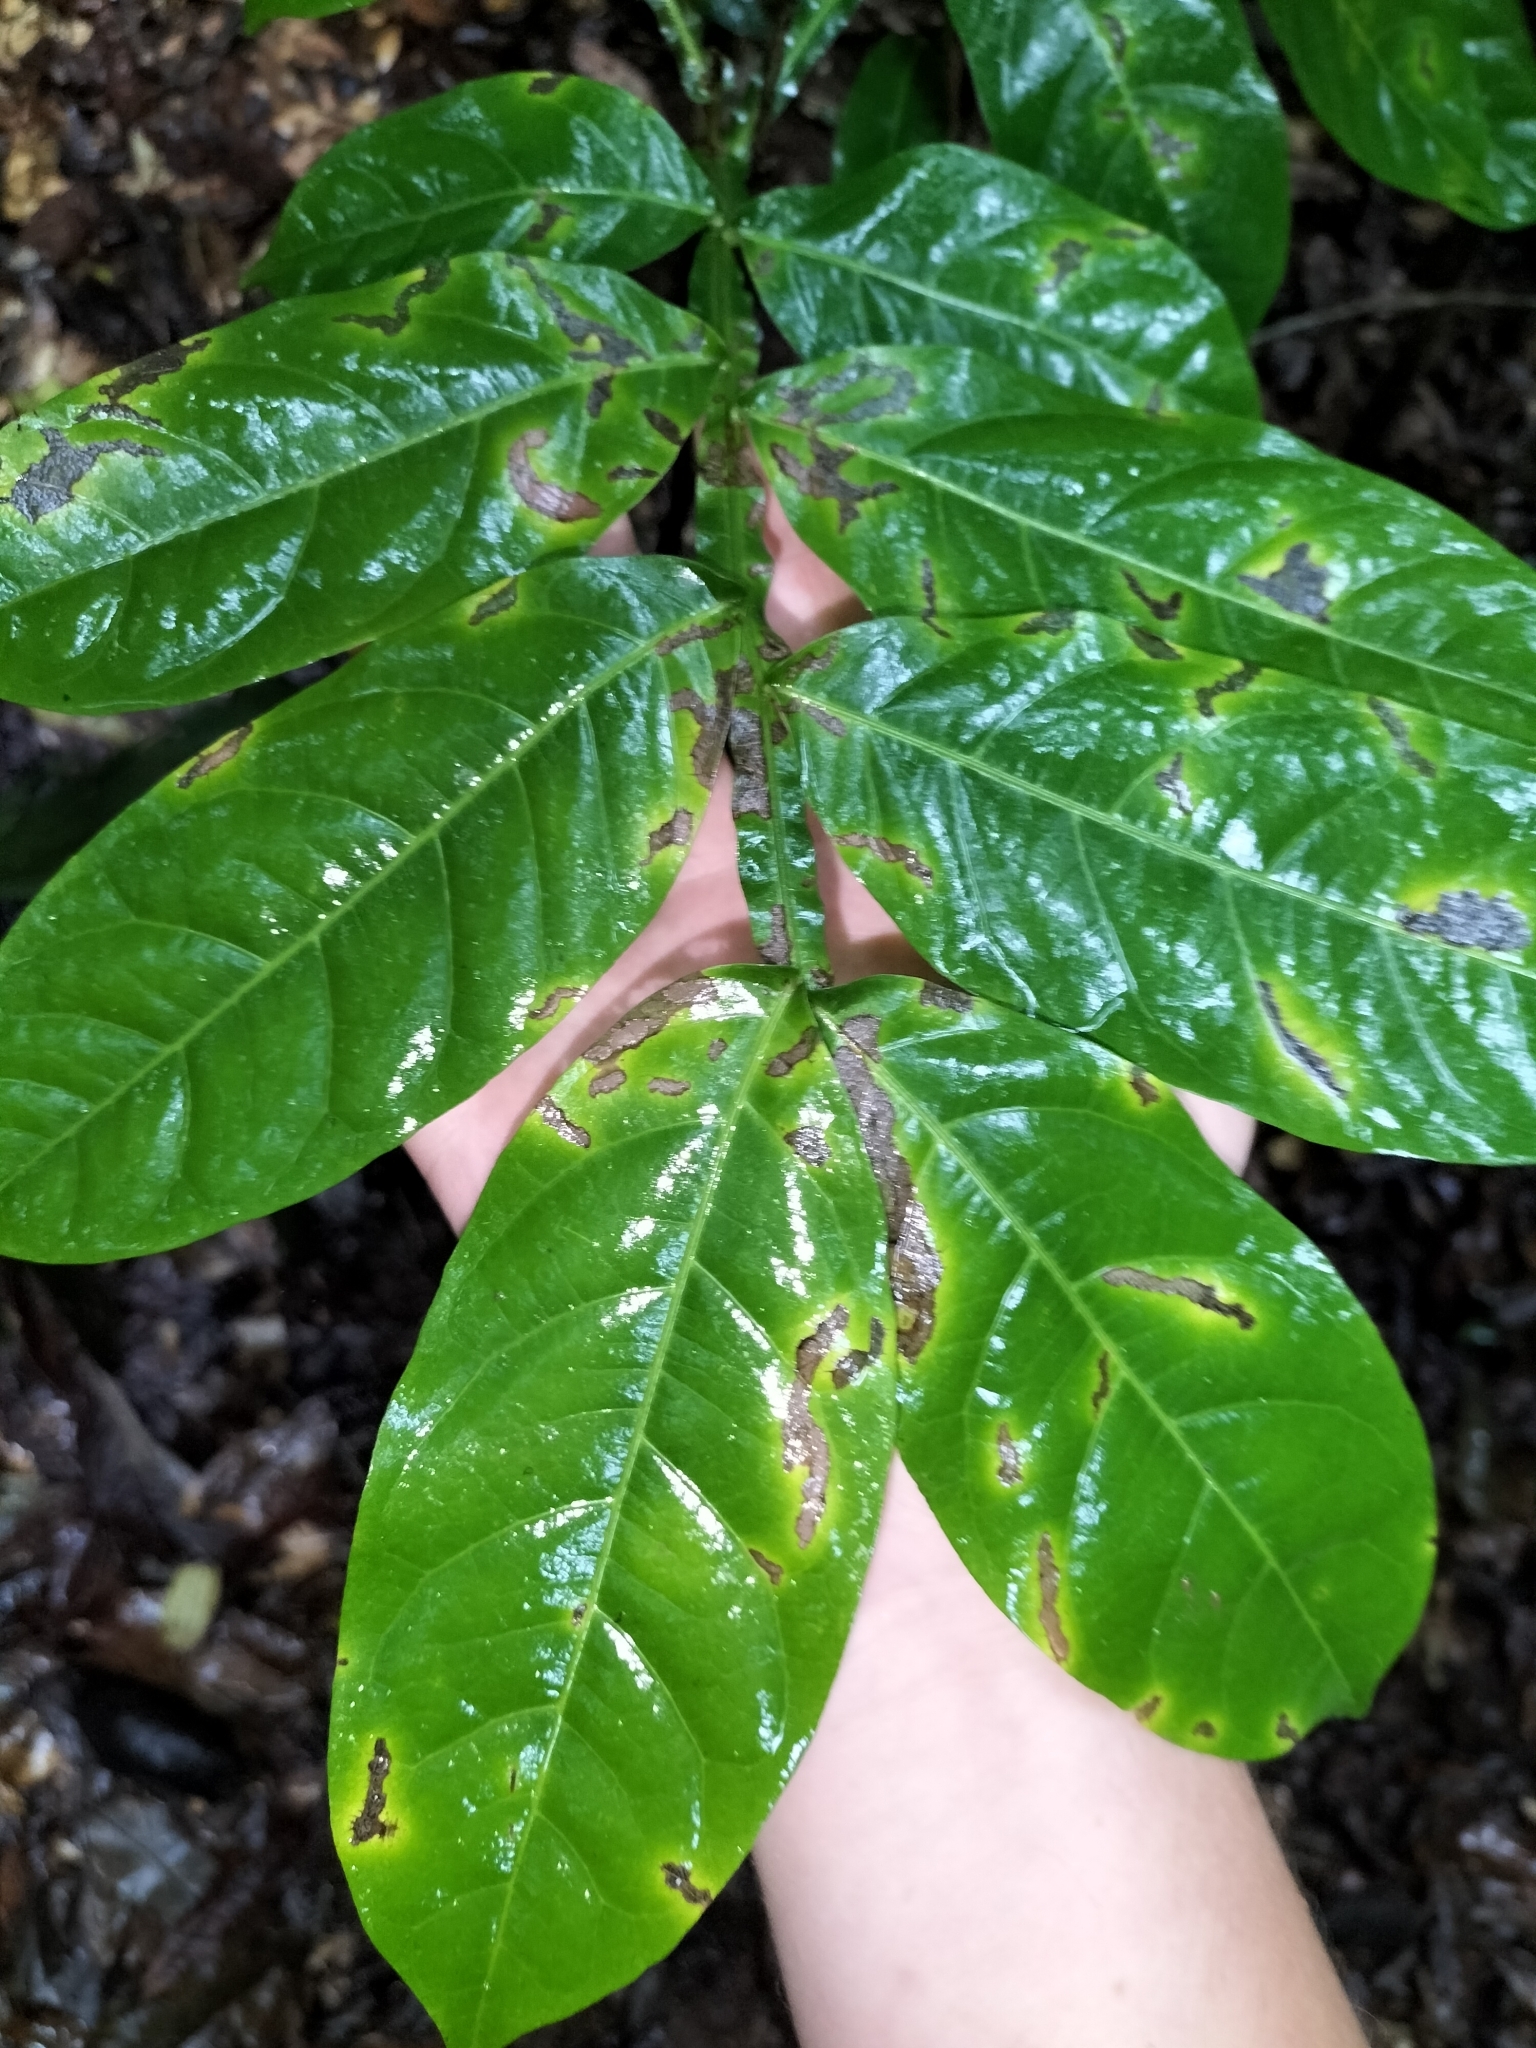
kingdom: Plantae
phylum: Tracheophyta
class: Magnoliopsida
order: Sapindales
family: Sapindaceae
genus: Harpullia
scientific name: Harpullia frutescens
